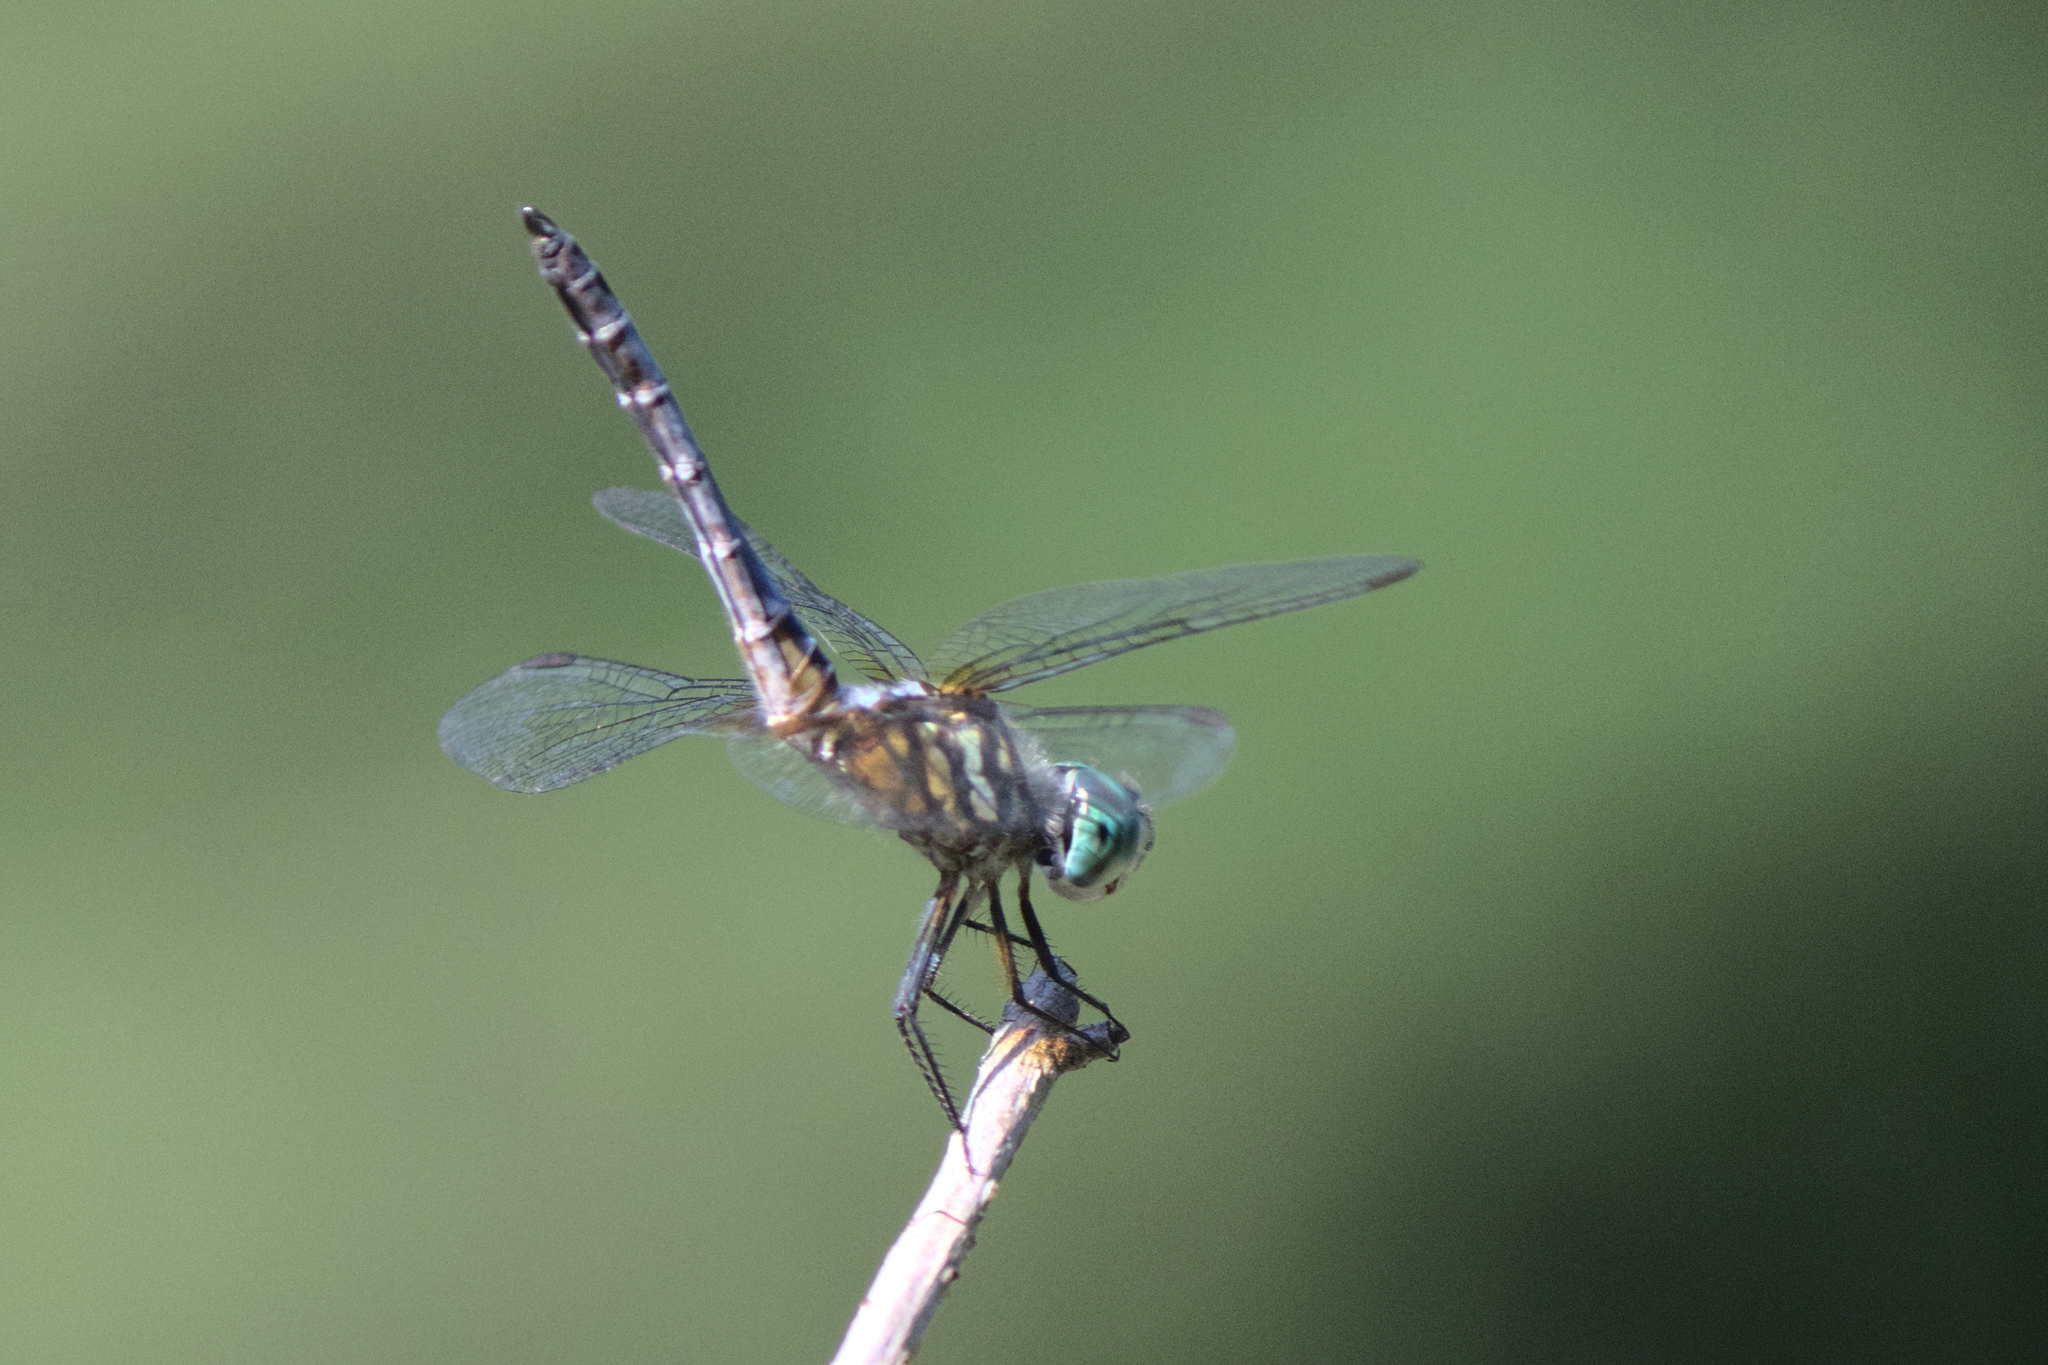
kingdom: Animalia
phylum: Arthropoda
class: Insecta
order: Odonata
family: Libellulidae
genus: Pachydiplax
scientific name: Pachydiplax longipennis
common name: Blue dasher
